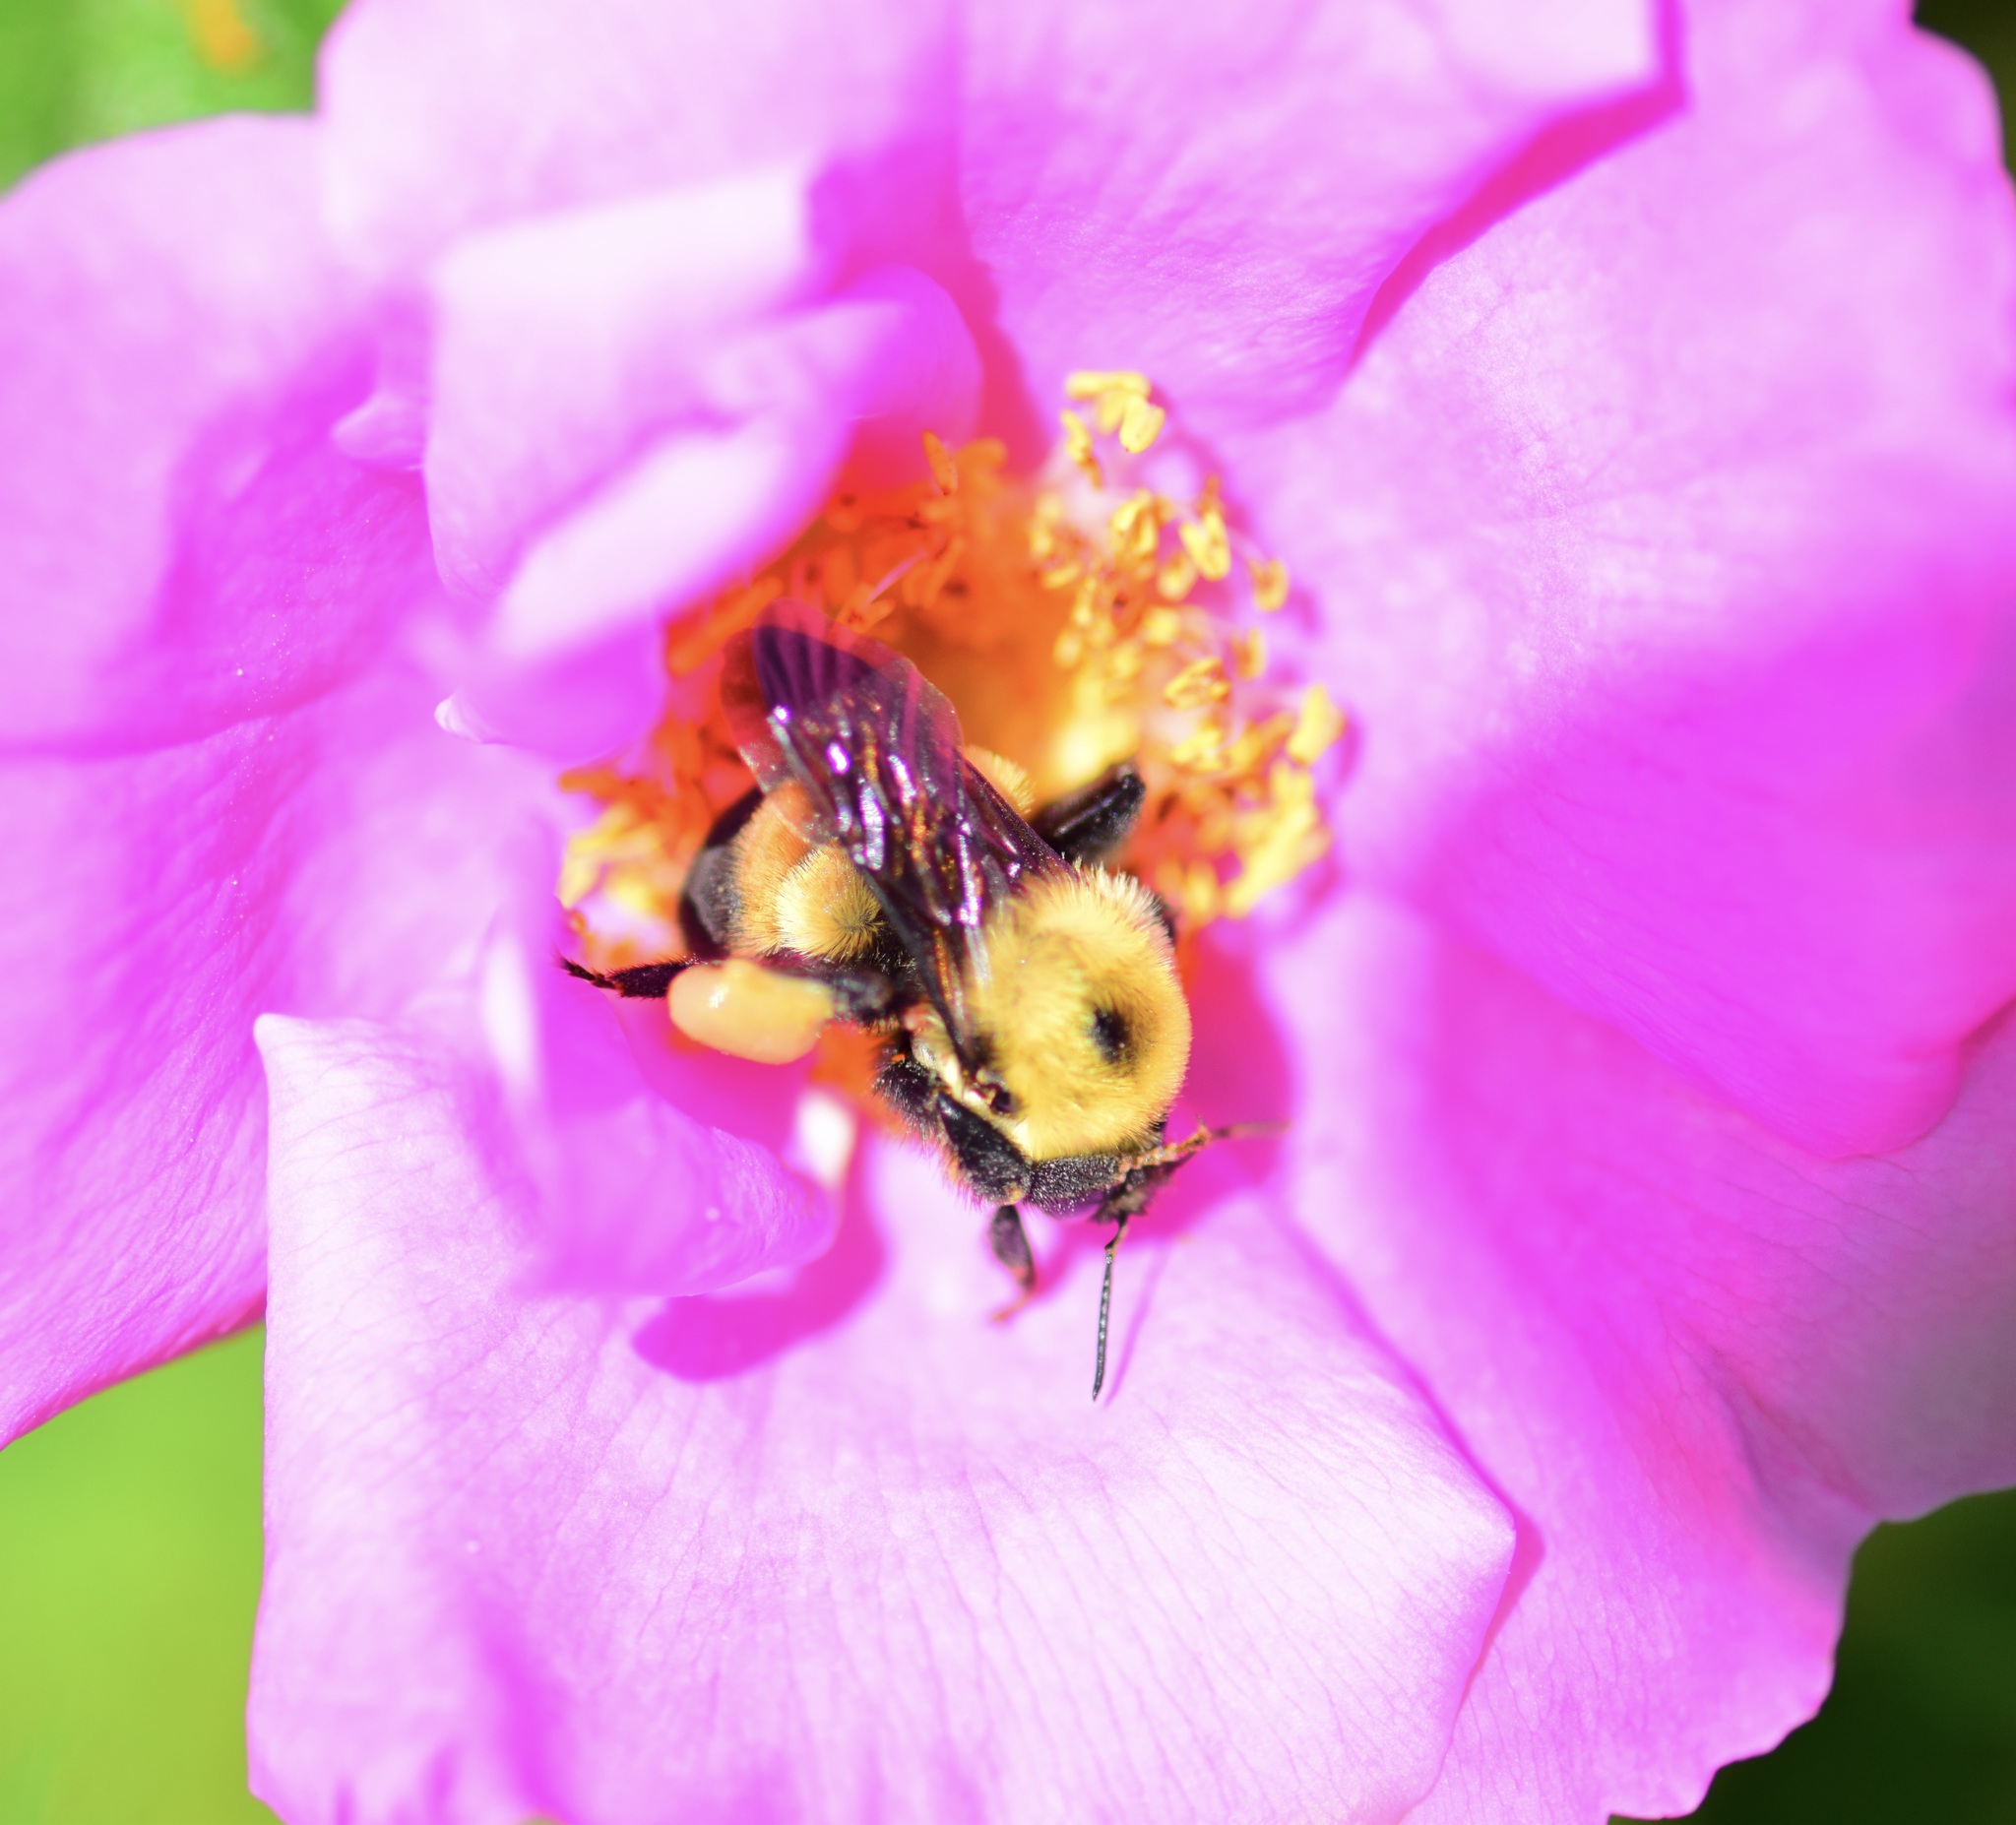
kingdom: Animalia
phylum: Arthropoda
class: Insecta
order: Hymenoptera
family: Apidae
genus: Bombus
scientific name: Bombus griseocollis
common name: Brown-belted bumble bee
